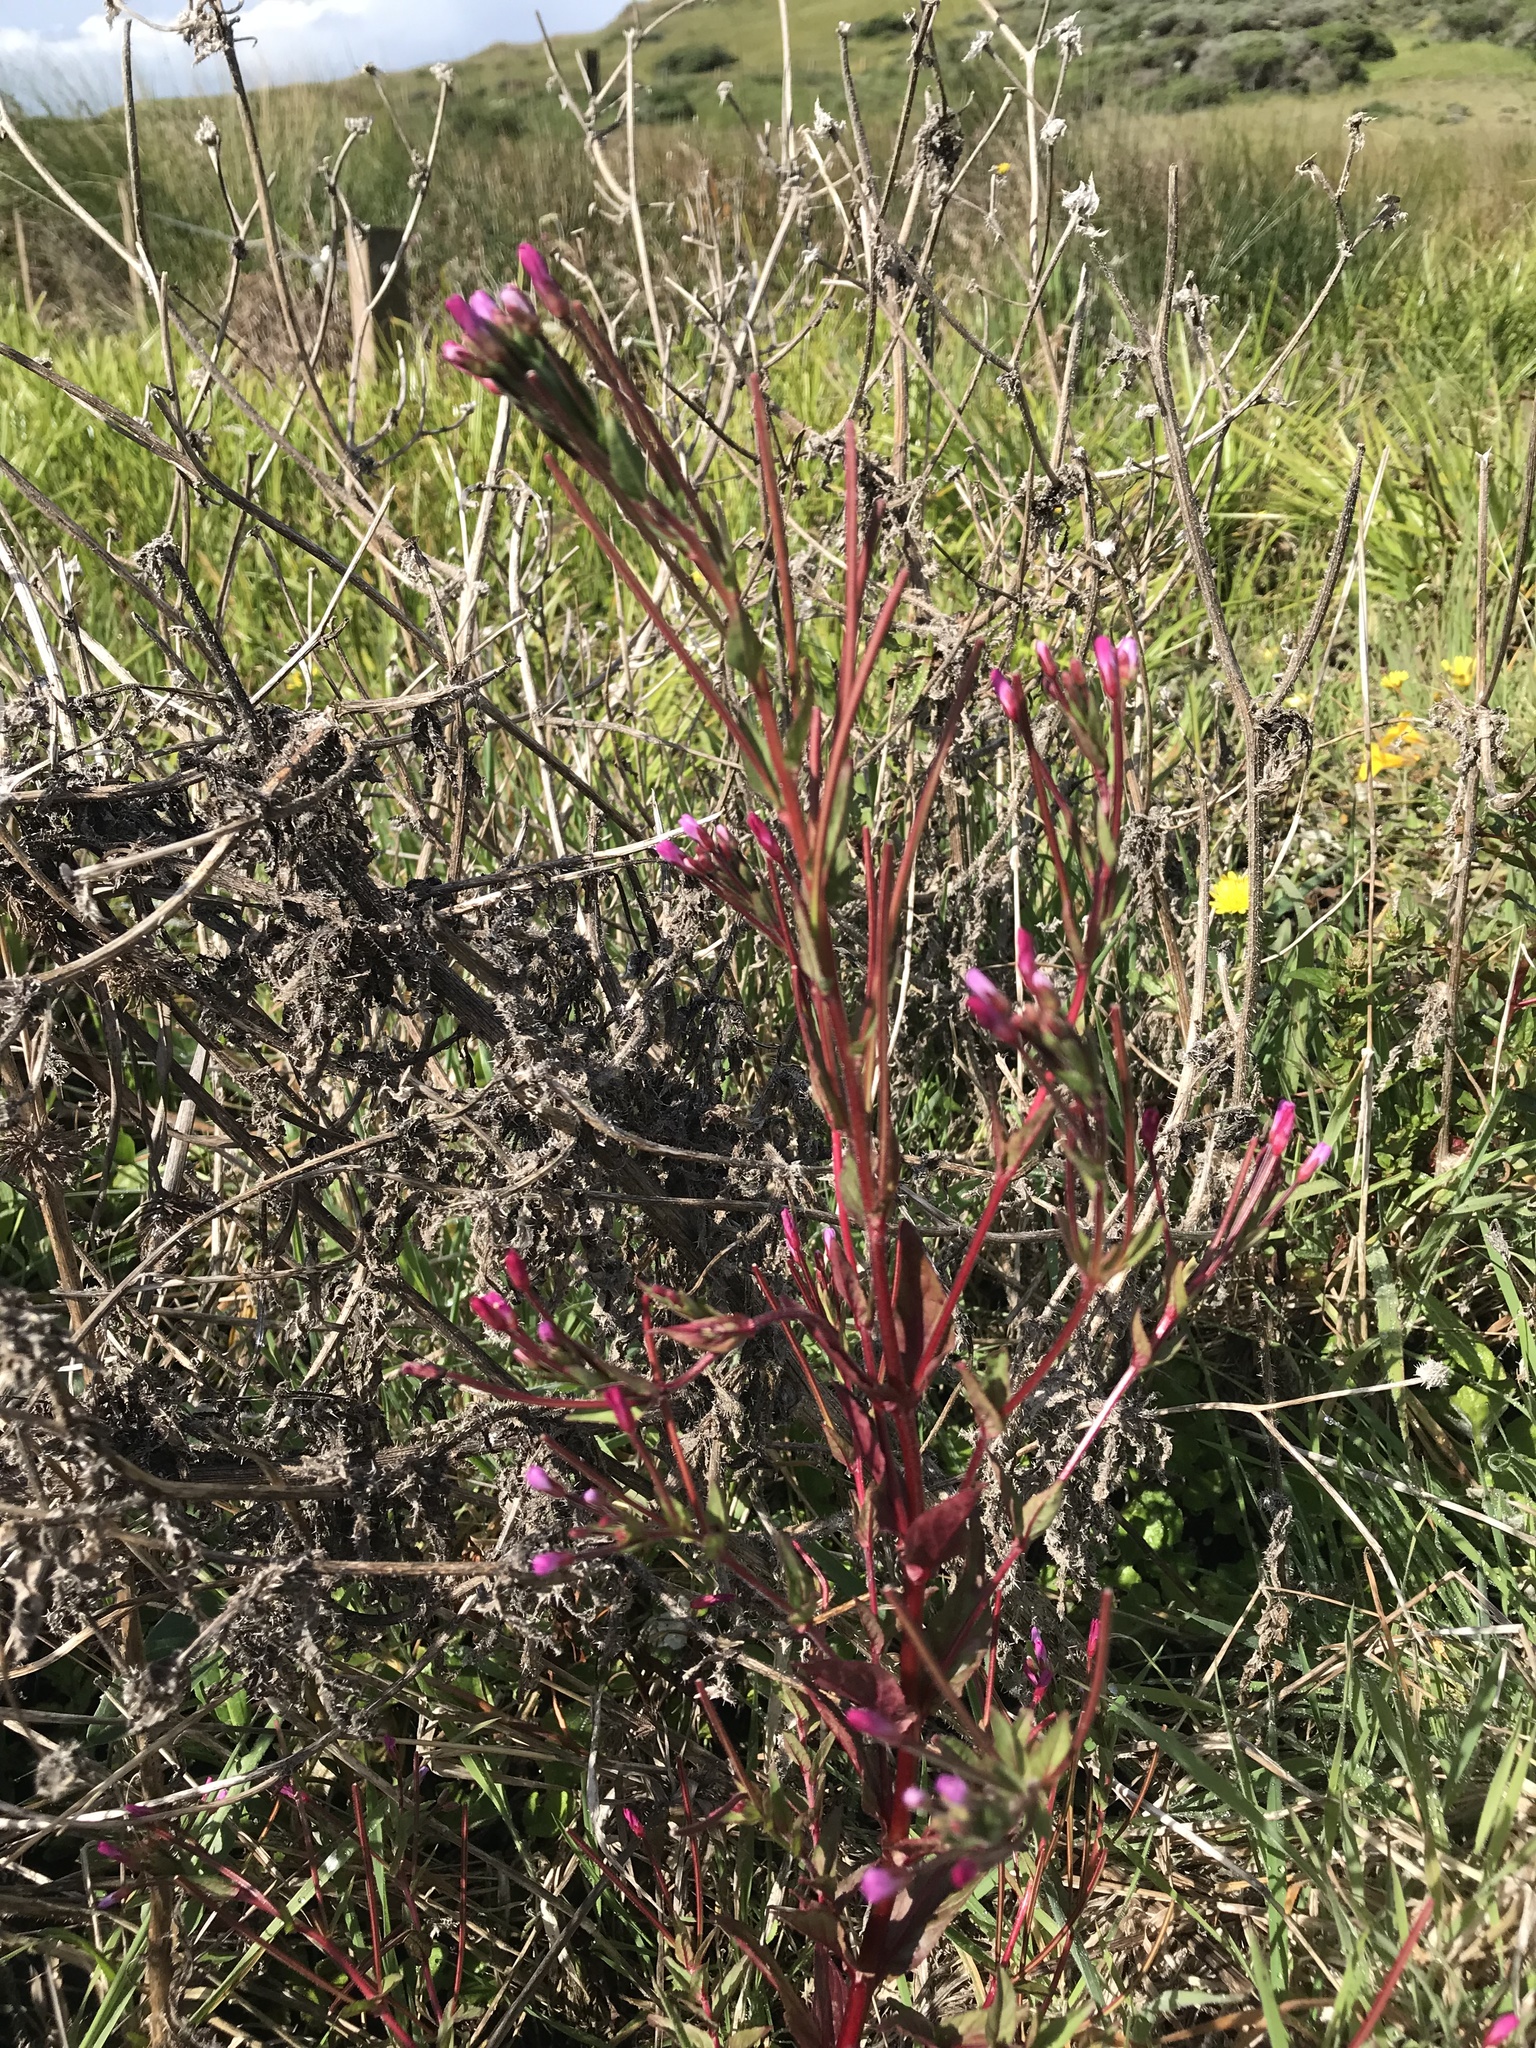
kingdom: Plantae
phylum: Tracheophyta
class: Magnoliopsida
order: Myrtales
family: Onagraceae
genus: Epilobium
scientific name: Epilobium ciliatum
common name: American willowherb
